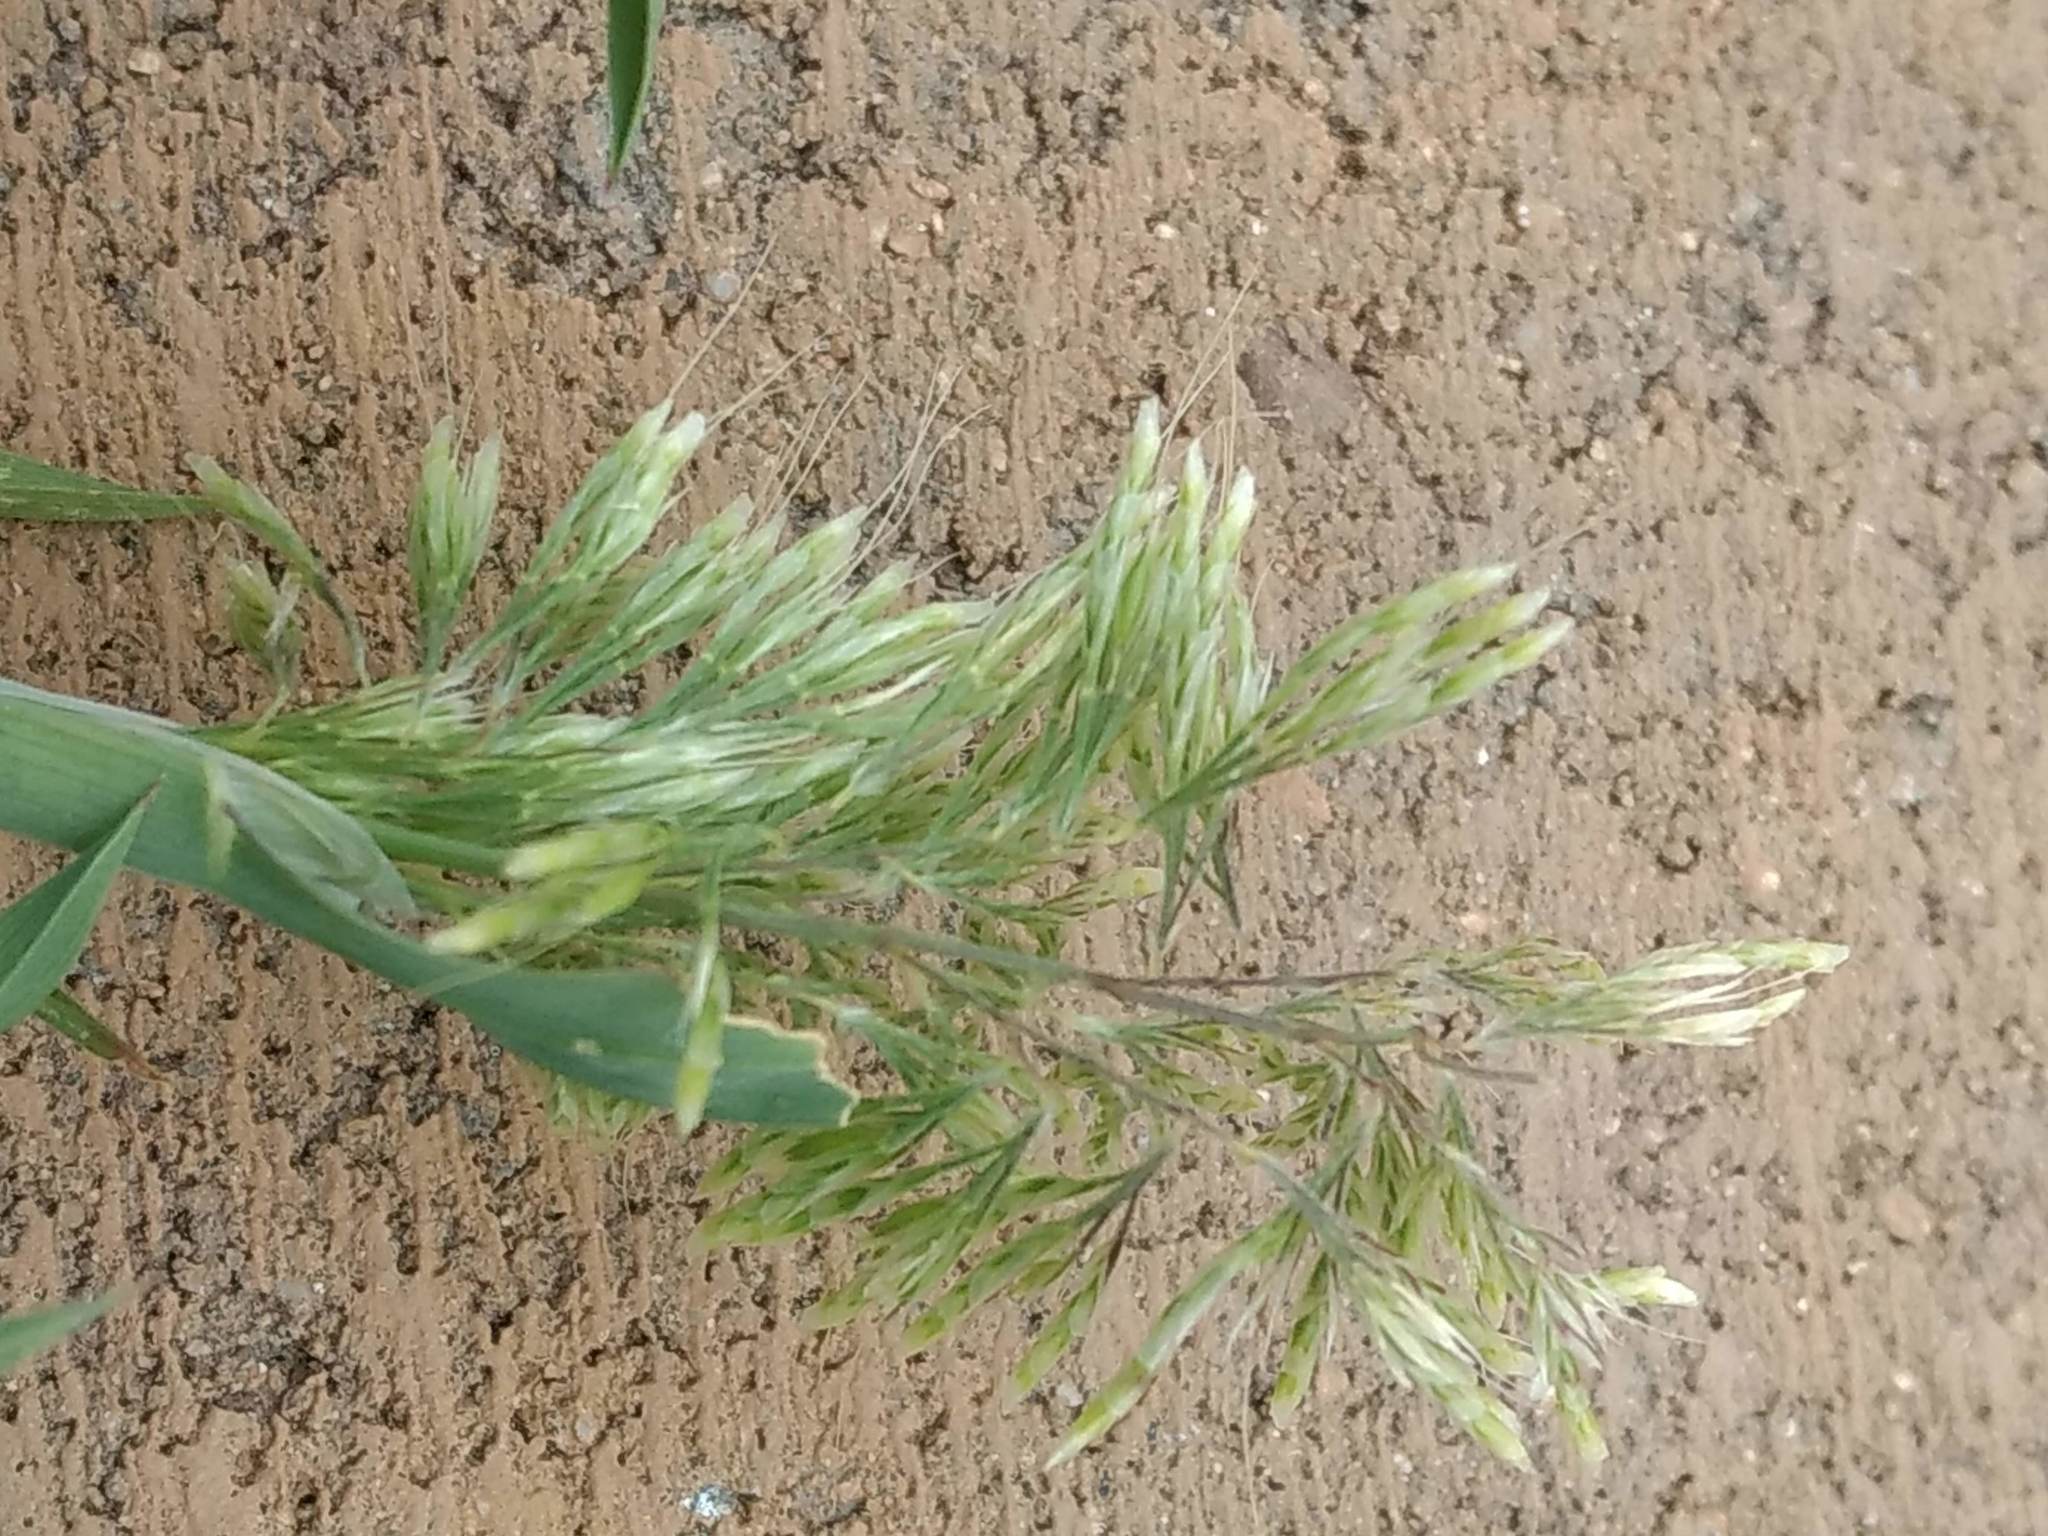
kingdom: Plantae
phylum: Tracheophyta
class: Liliopsida
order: Poales
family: Poaceae
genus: Lamarckia
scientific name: Lamarckia aurea
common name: Golden dog's-tail
